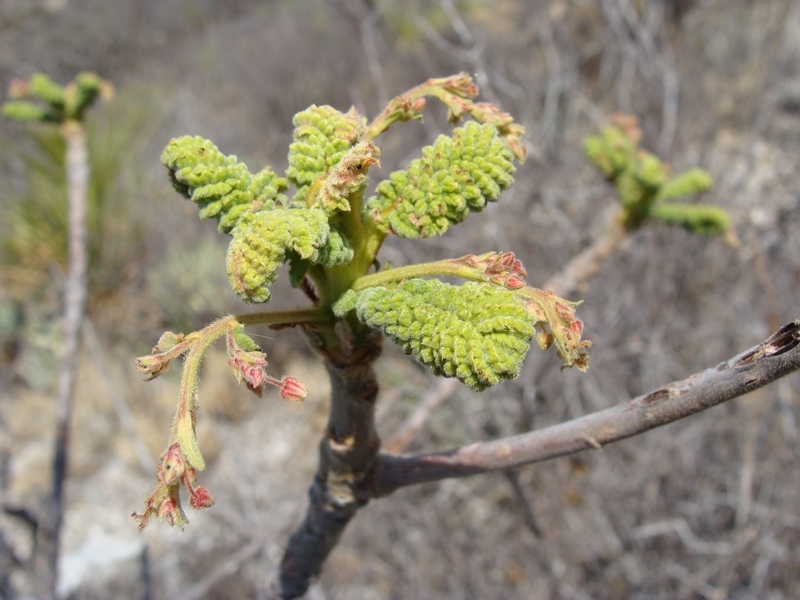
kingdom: Plantae
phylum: Tracheophyta
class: Magnoliopsida
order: Sapindales
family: Anacardiaceae
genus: Actinocheita
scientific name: Actinocheita filicina
